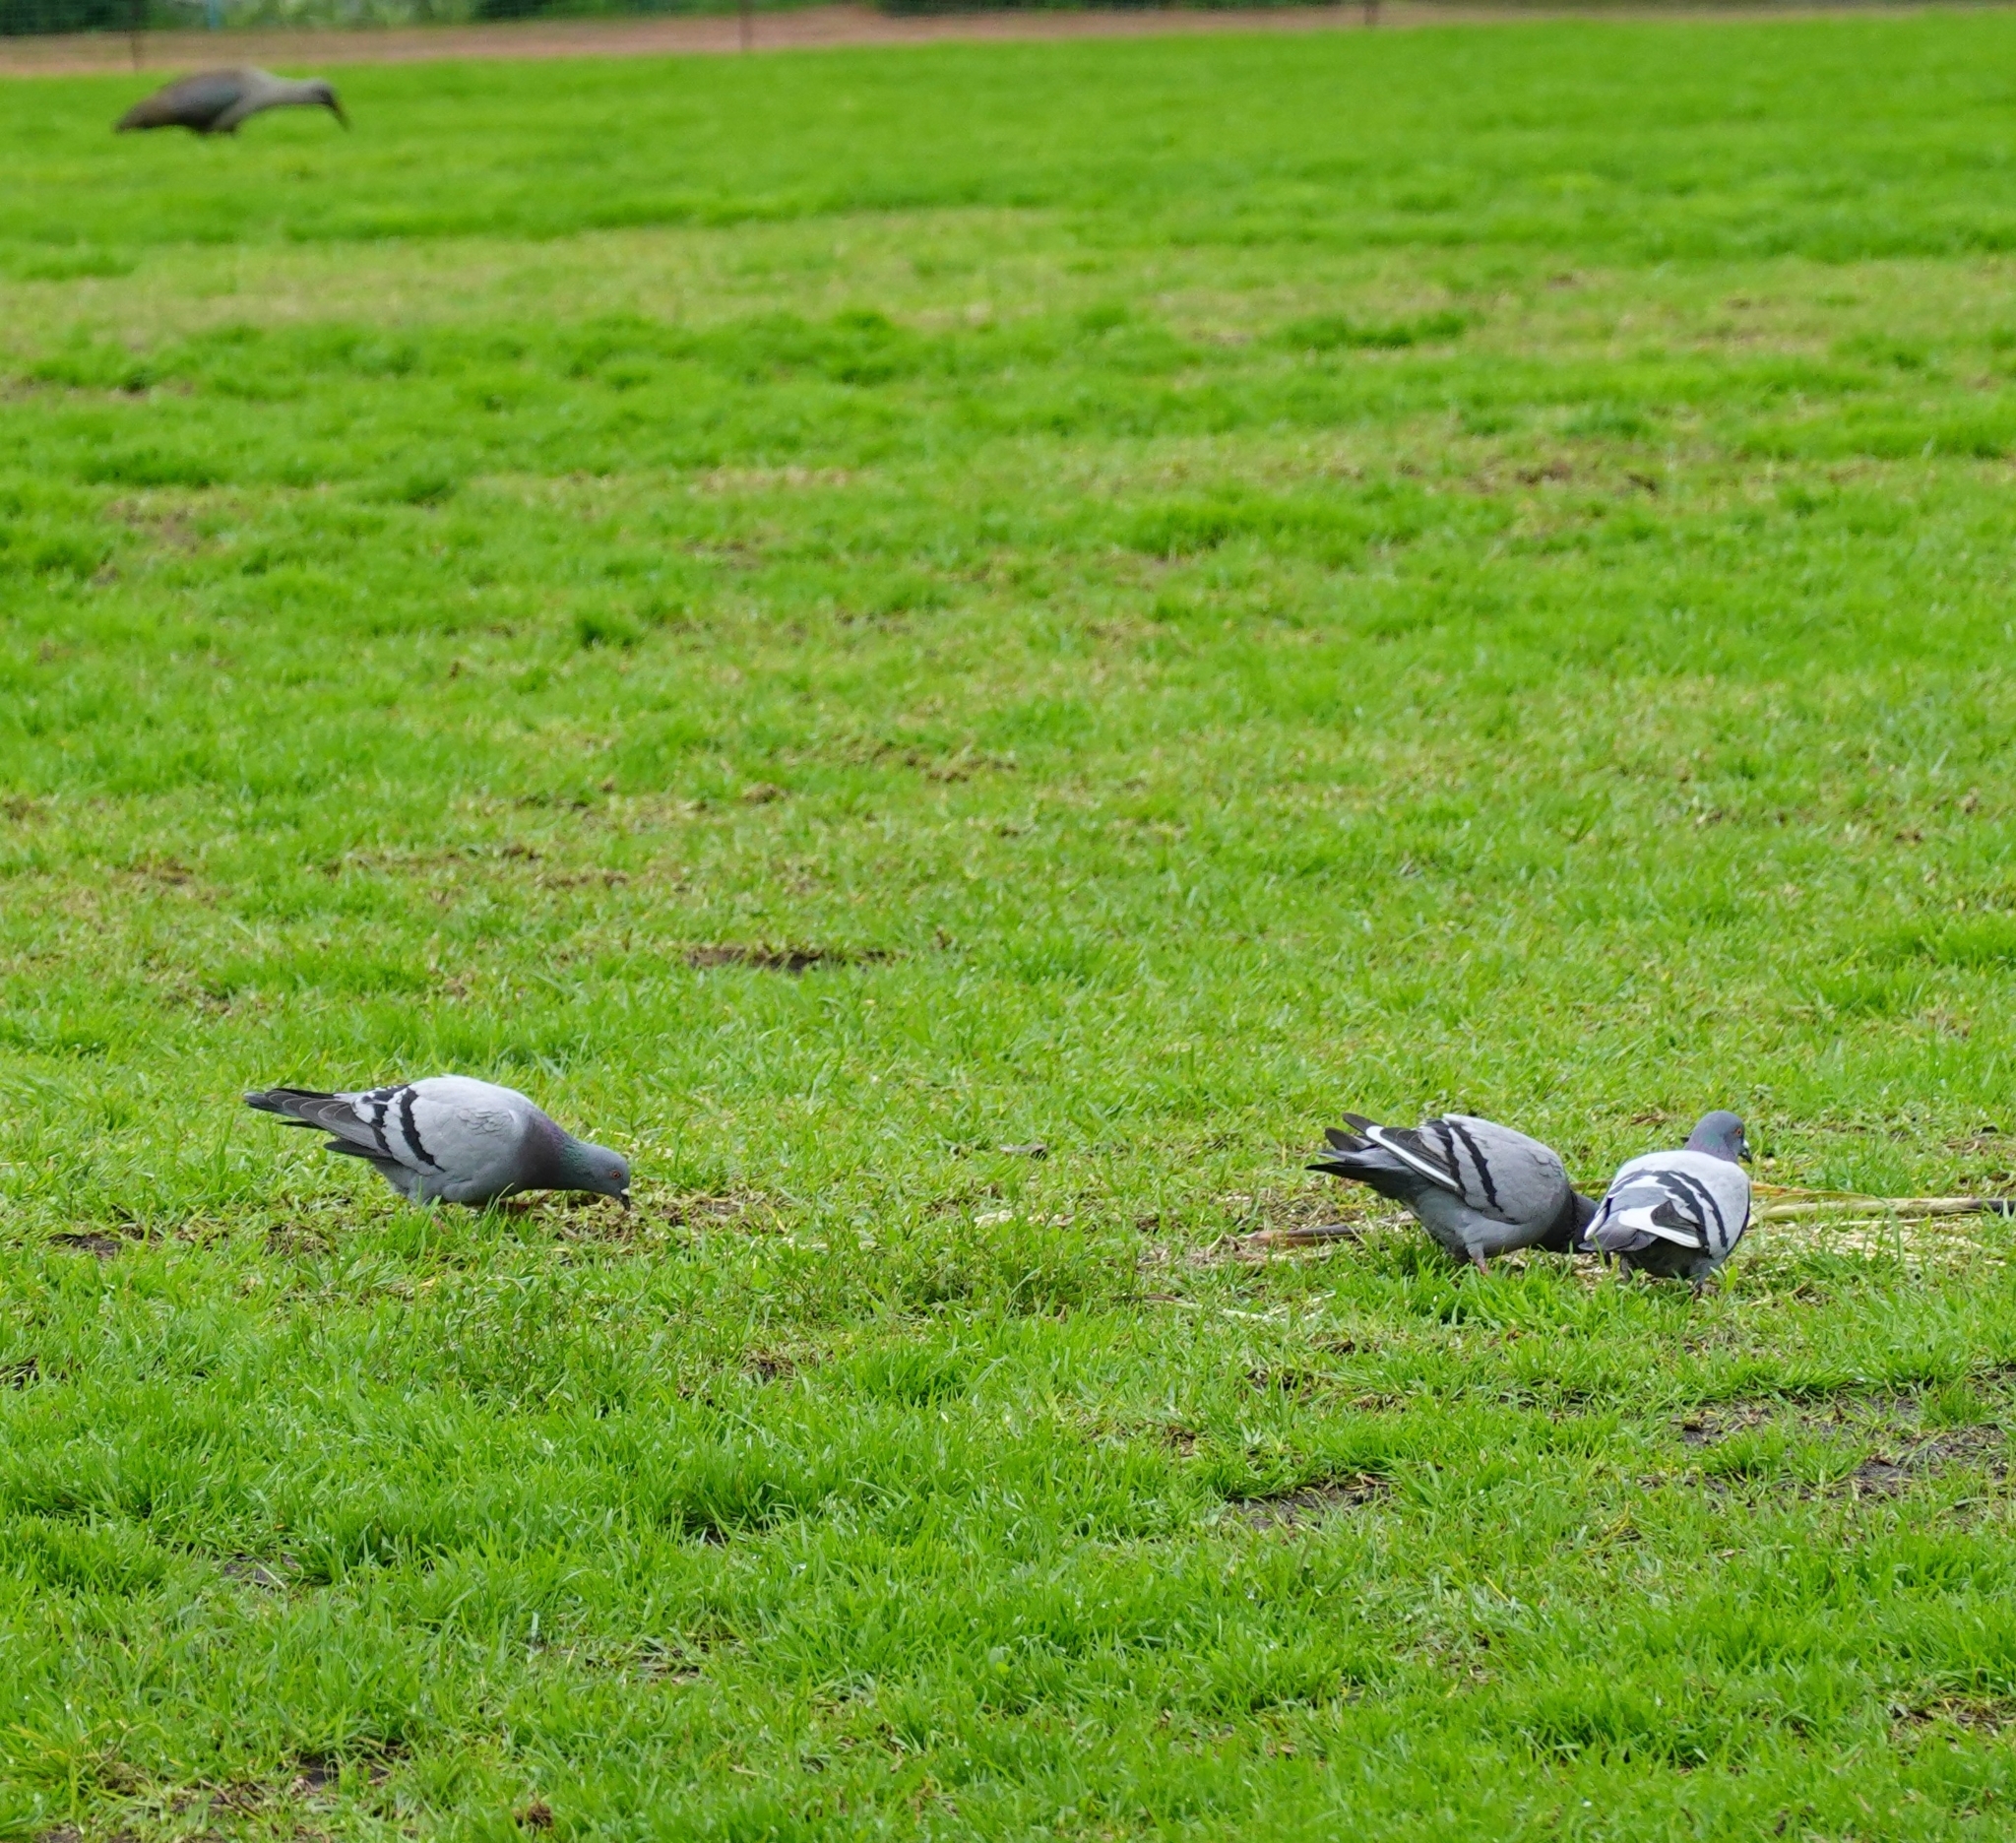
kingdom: Animalia
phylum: Chordata
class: Aves
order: Columbiformes
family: Columbidae
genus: Columba
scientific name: Columba livia
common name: Rock pigeon
